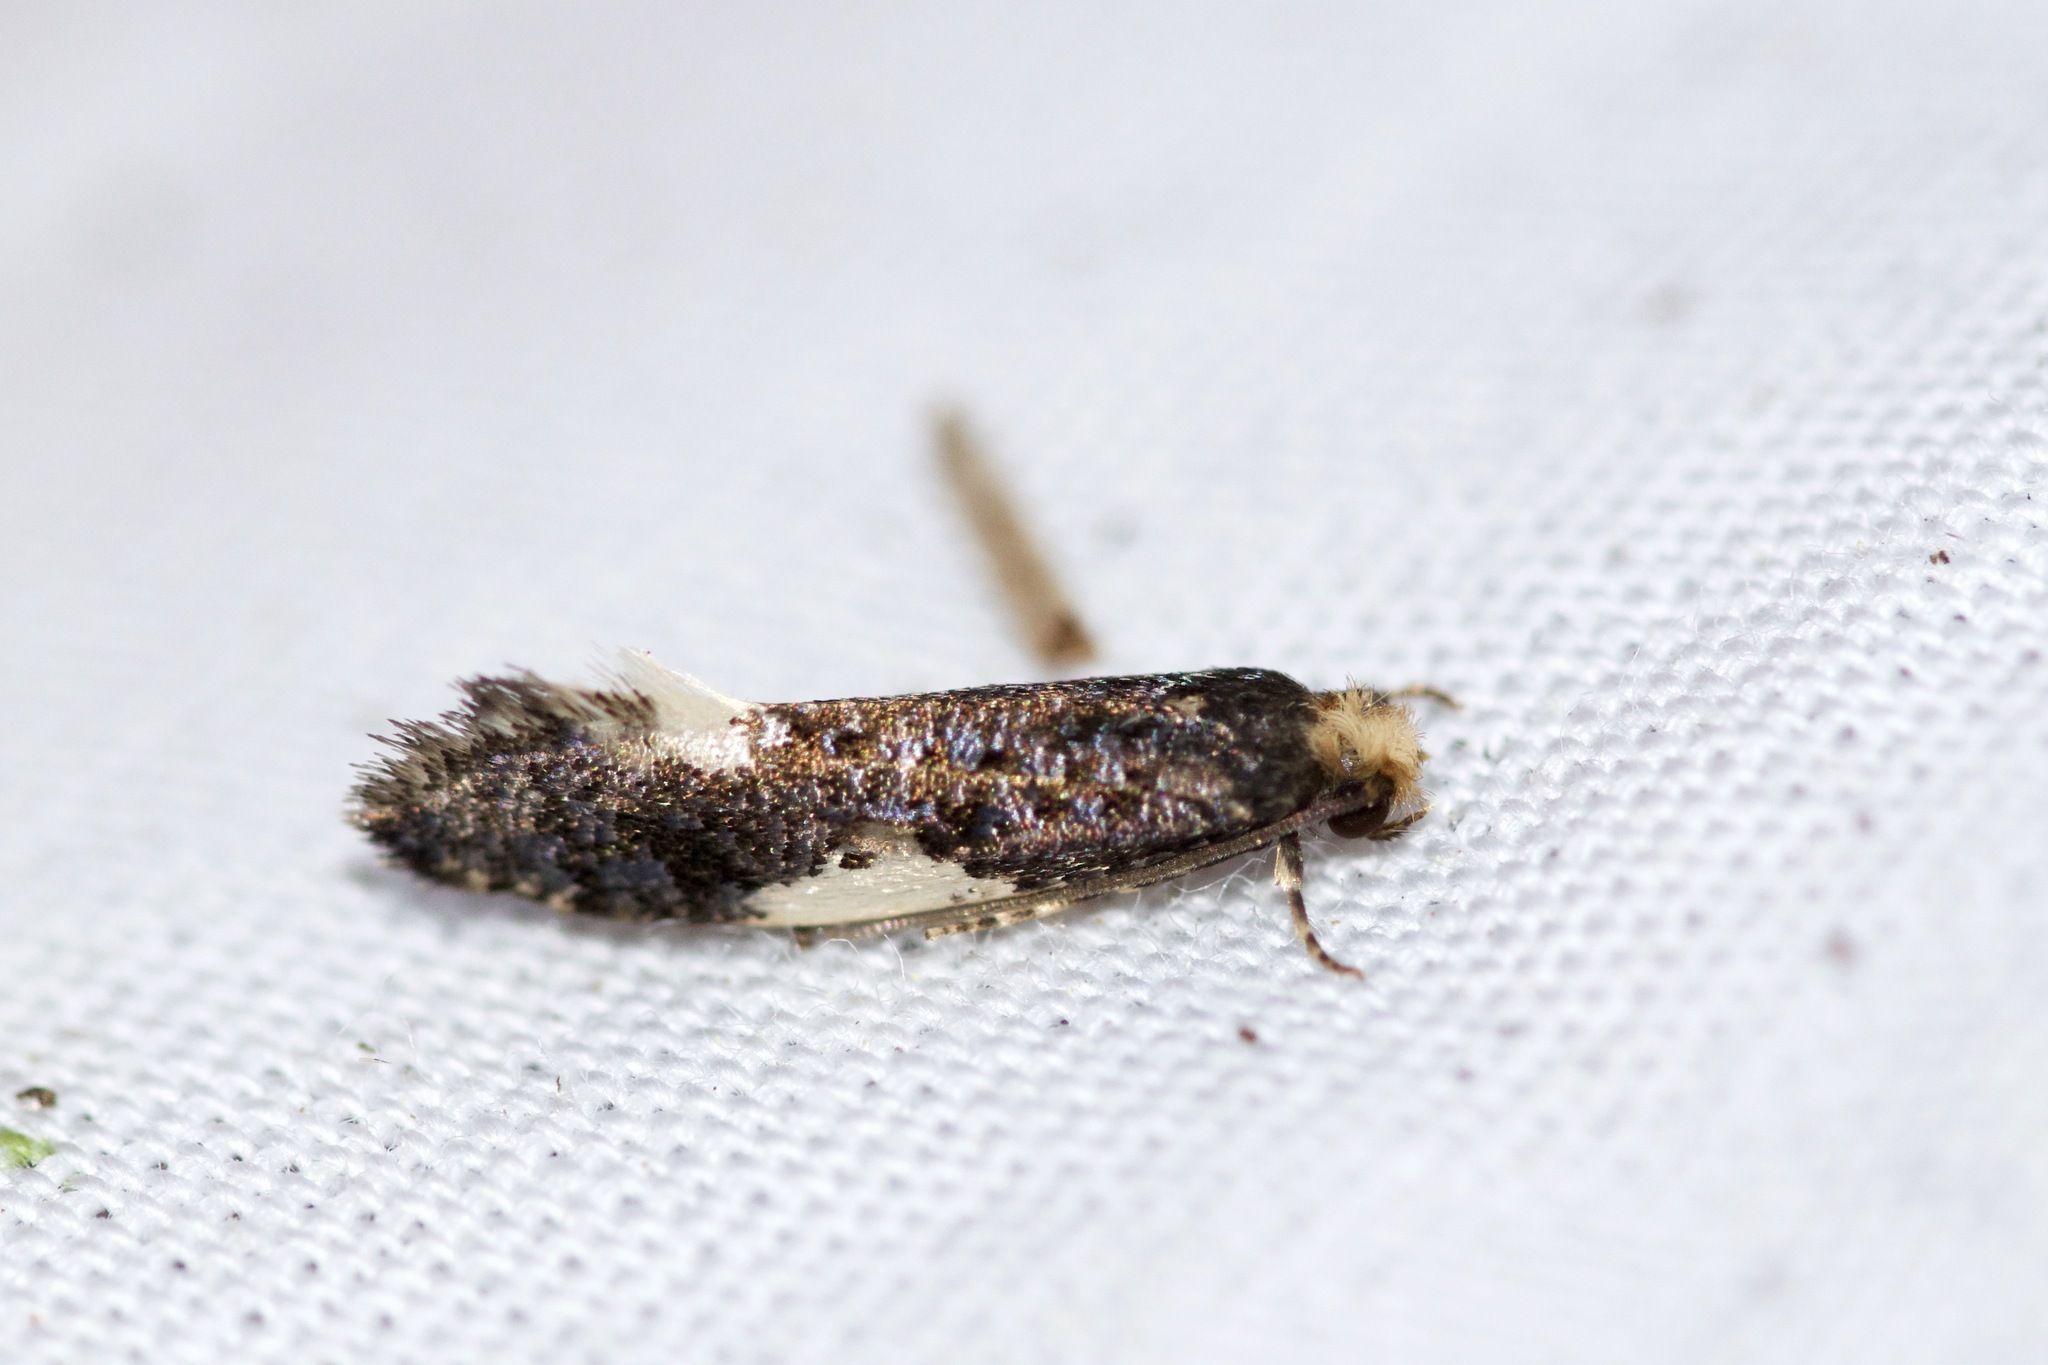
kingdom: Animalia
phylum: Arthropoda
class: Insecta
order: Lepidoptera
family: Tineidae
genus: Monopis
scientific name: Monopis spilotella
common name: Orange-headed monopis
